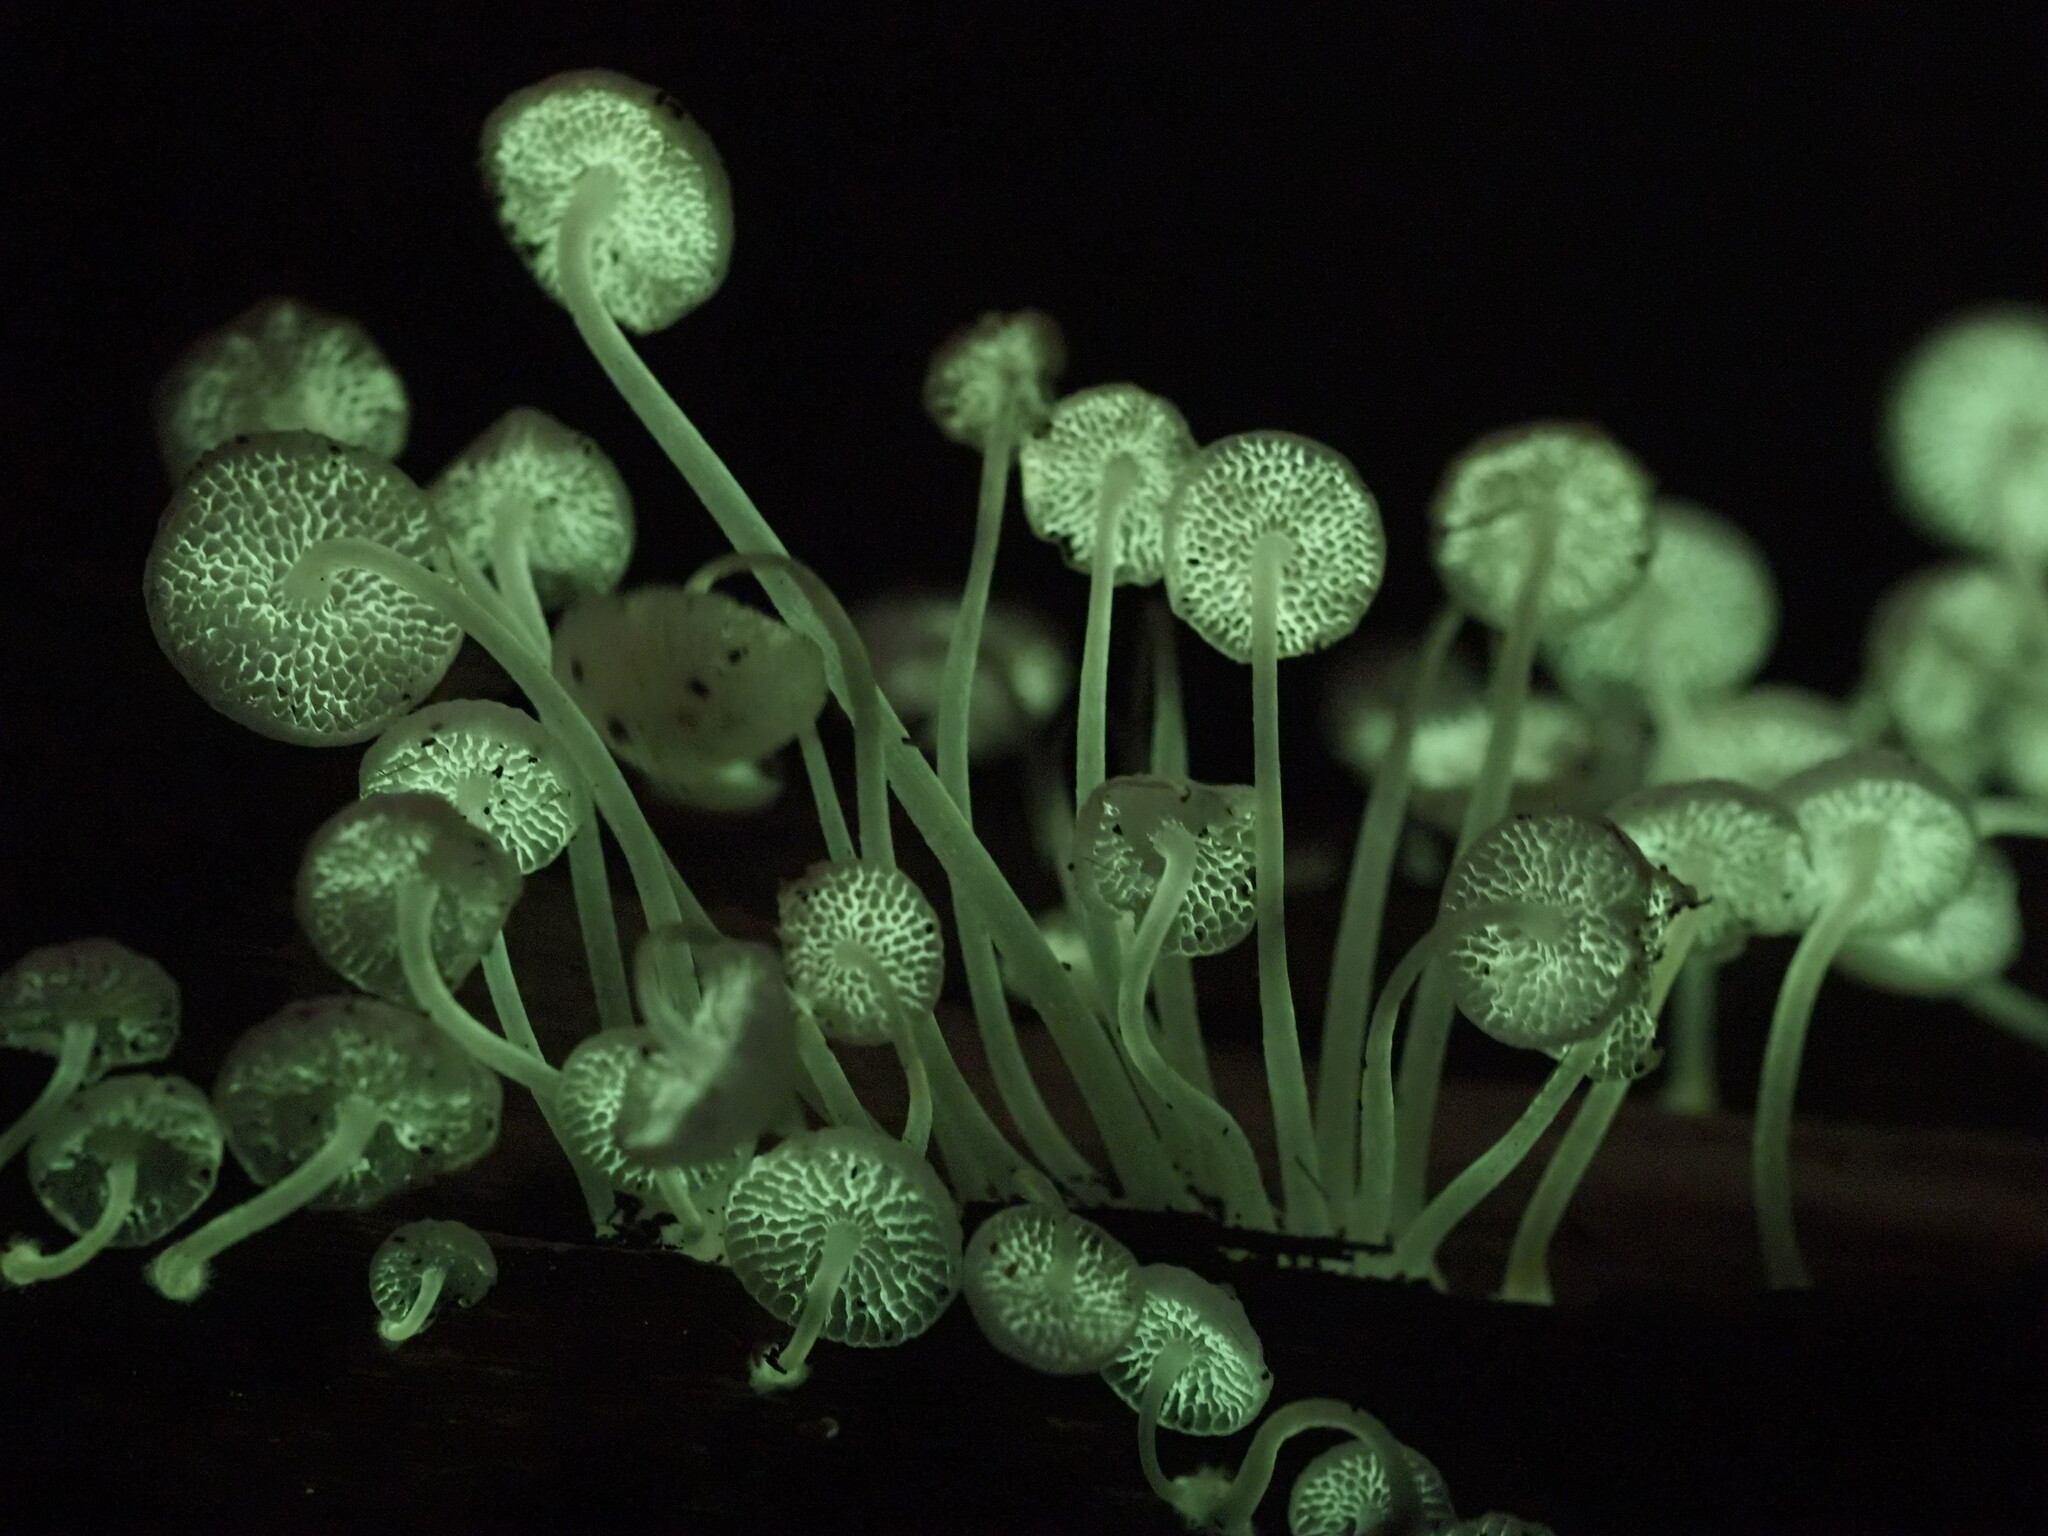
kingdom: Fungi
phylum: Basidiomycota
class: Agaricomycetes
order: Agaricales
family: Mycenaceae
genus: Filoboletus
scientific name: Filoboletus manipularis
